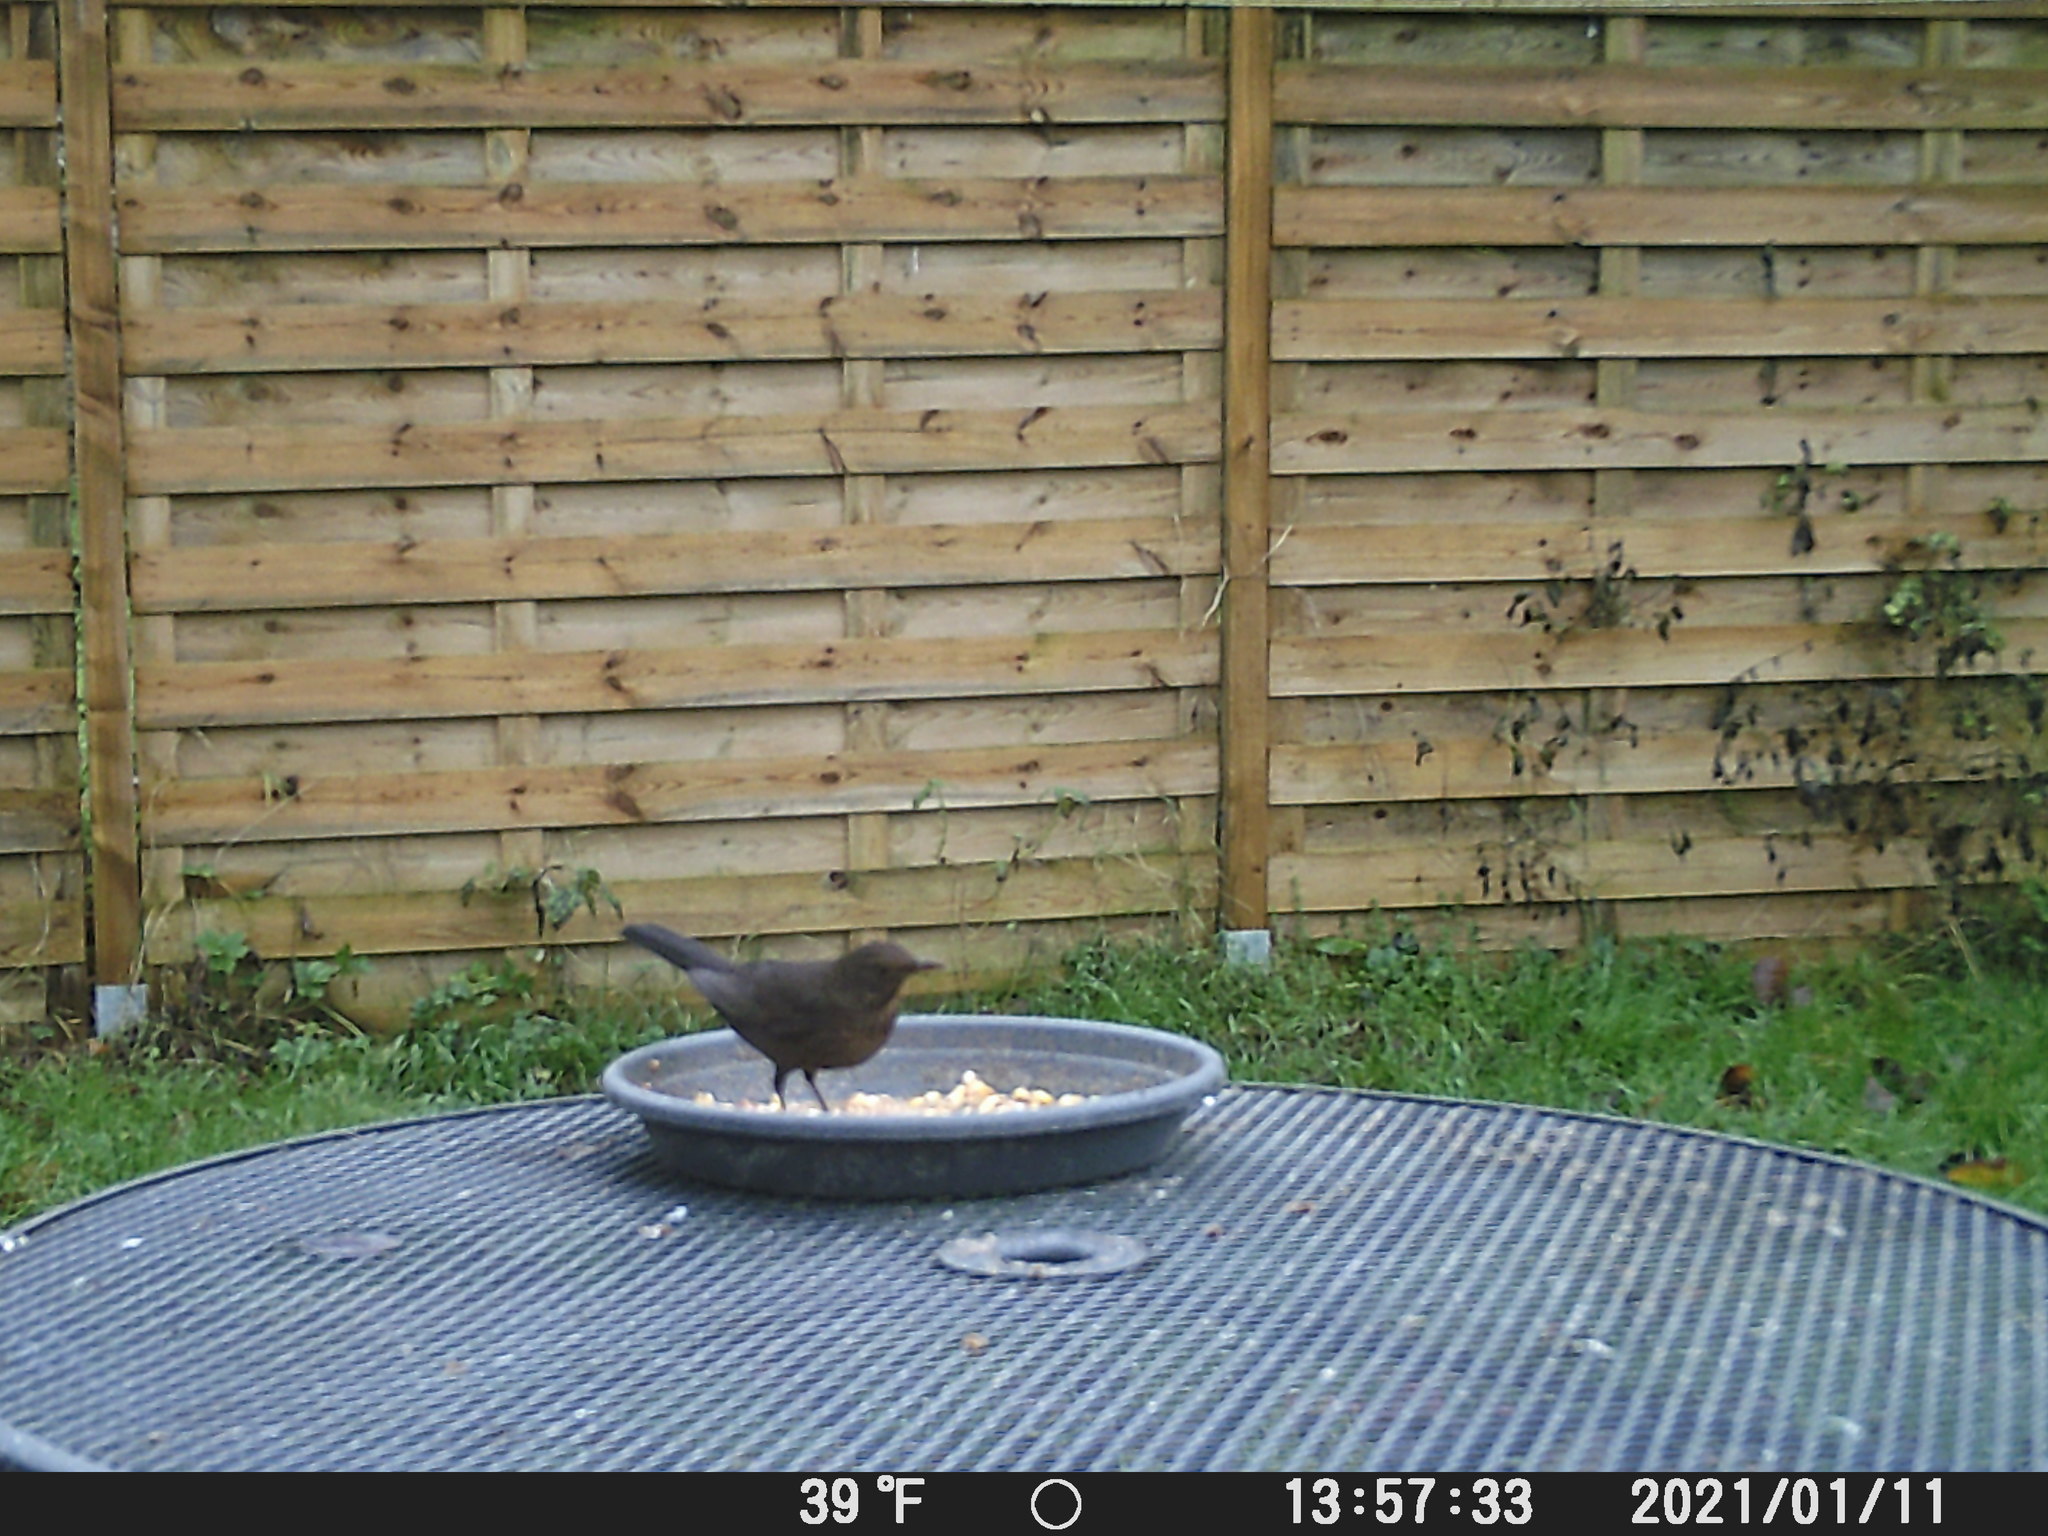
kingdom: Animalia
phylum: Chordata
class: Aves
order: Passeriformes
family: Turdidae
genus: Turdus
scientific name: Turdus merula
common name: Common blackbird
